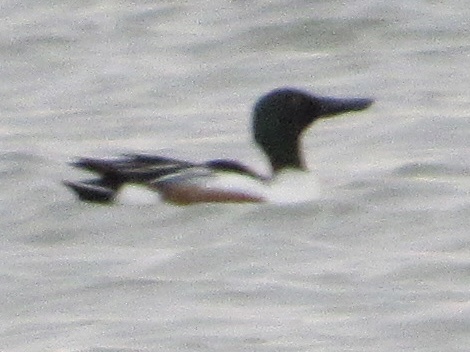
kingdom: Animalia
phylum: Chordata
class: Aves
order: Anseriformes
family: Anatidae
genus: Spatula
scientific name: Spatula clypeata
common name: Northern shoveler
